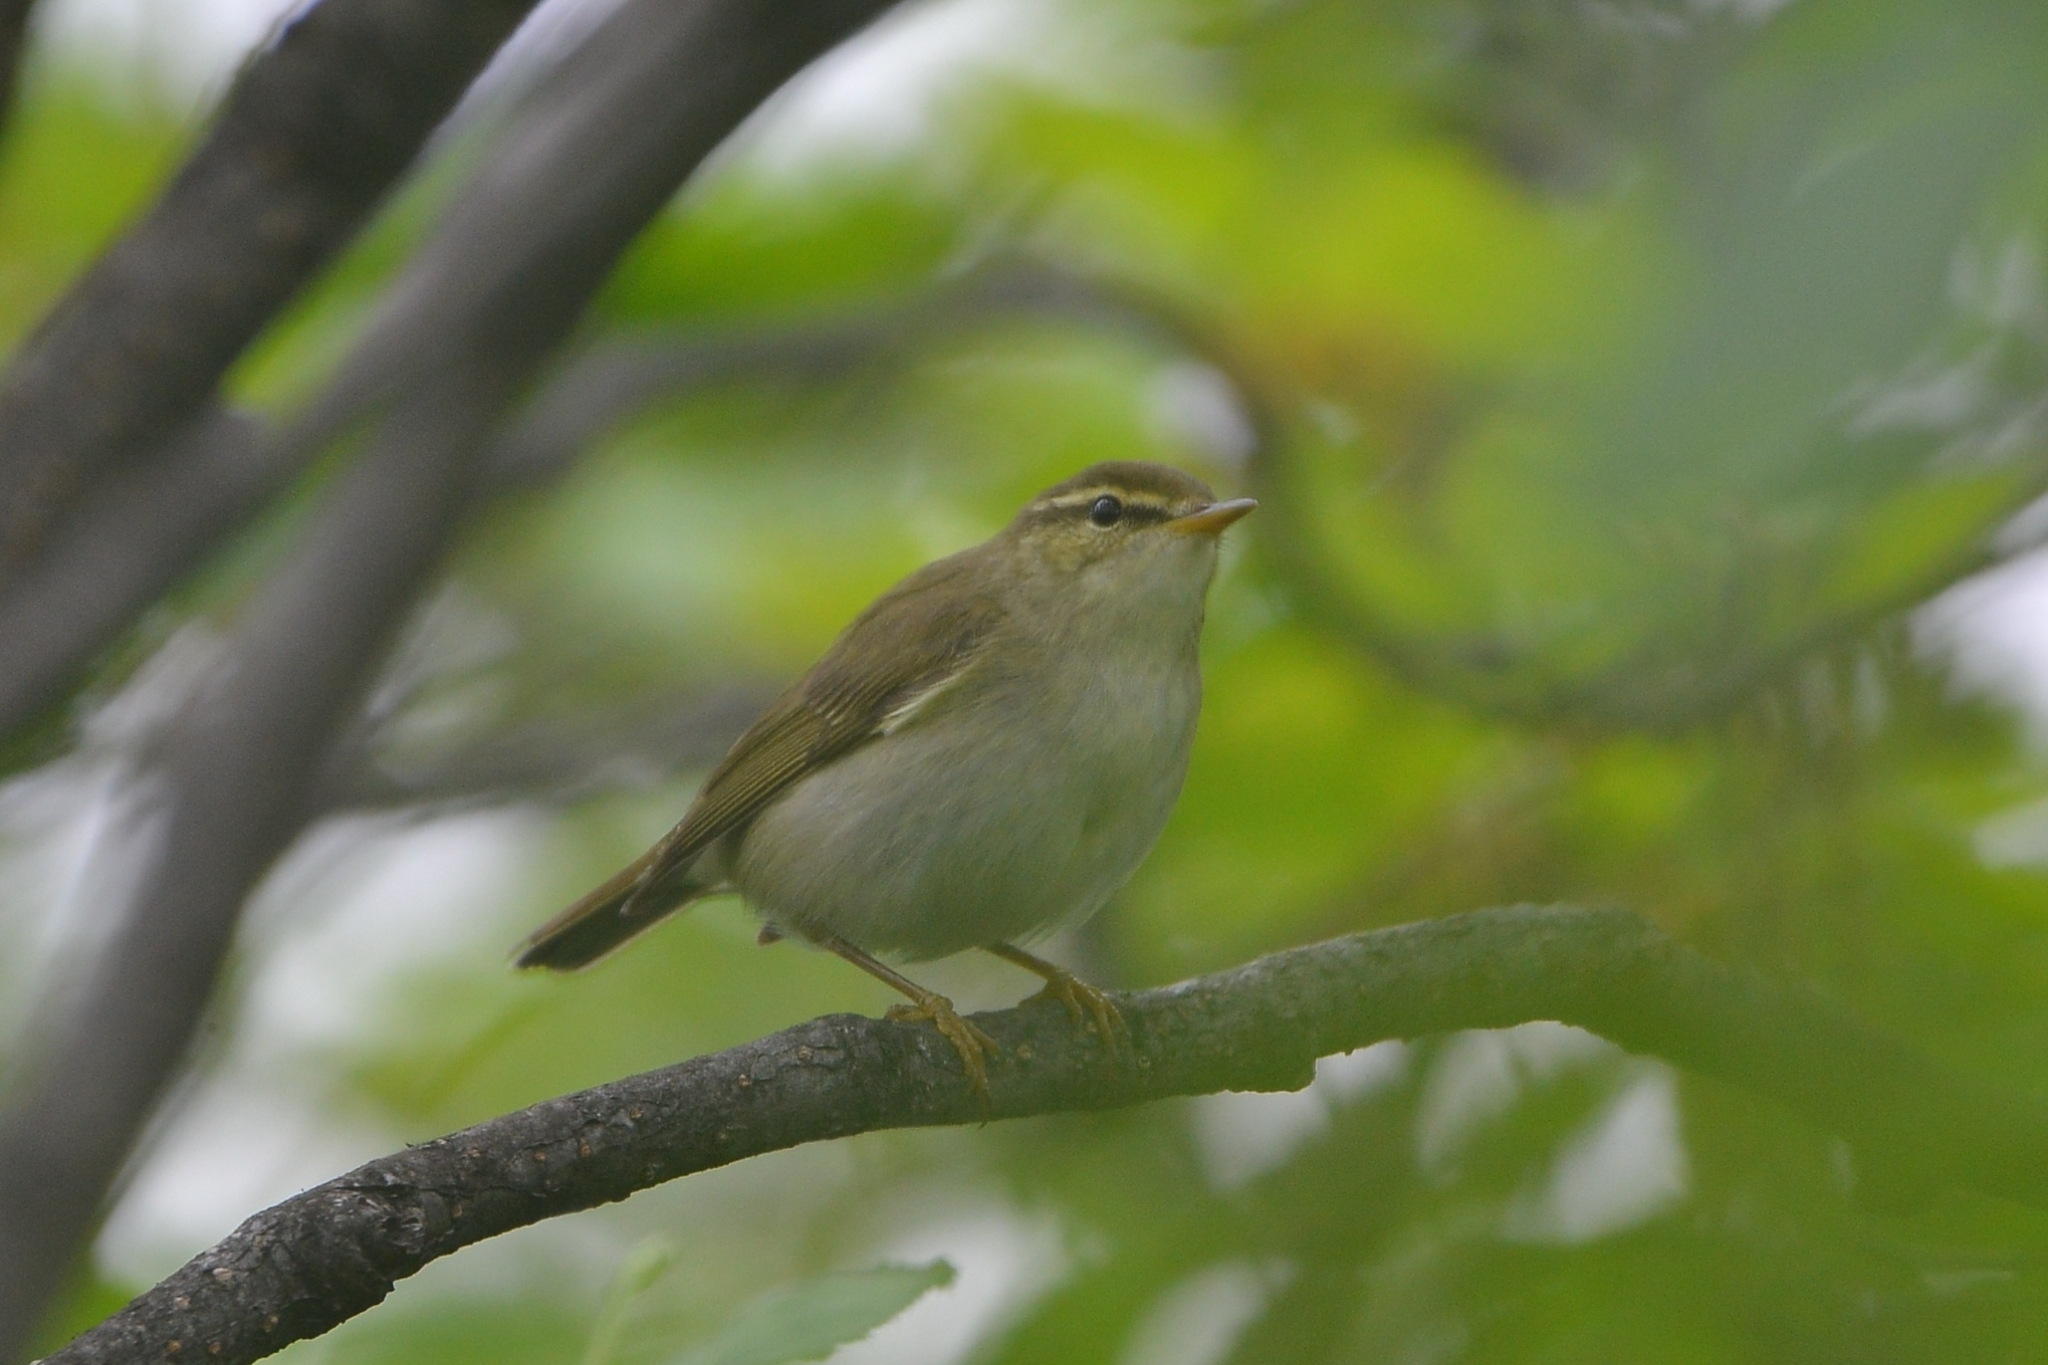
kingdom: Animalia
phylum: Chordata
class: Aves
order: Passeriformes
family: Phylloscopidae
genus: Phylloscopus
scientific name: Phylloscopus examinandus
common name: Kamchatka leaf warbler
